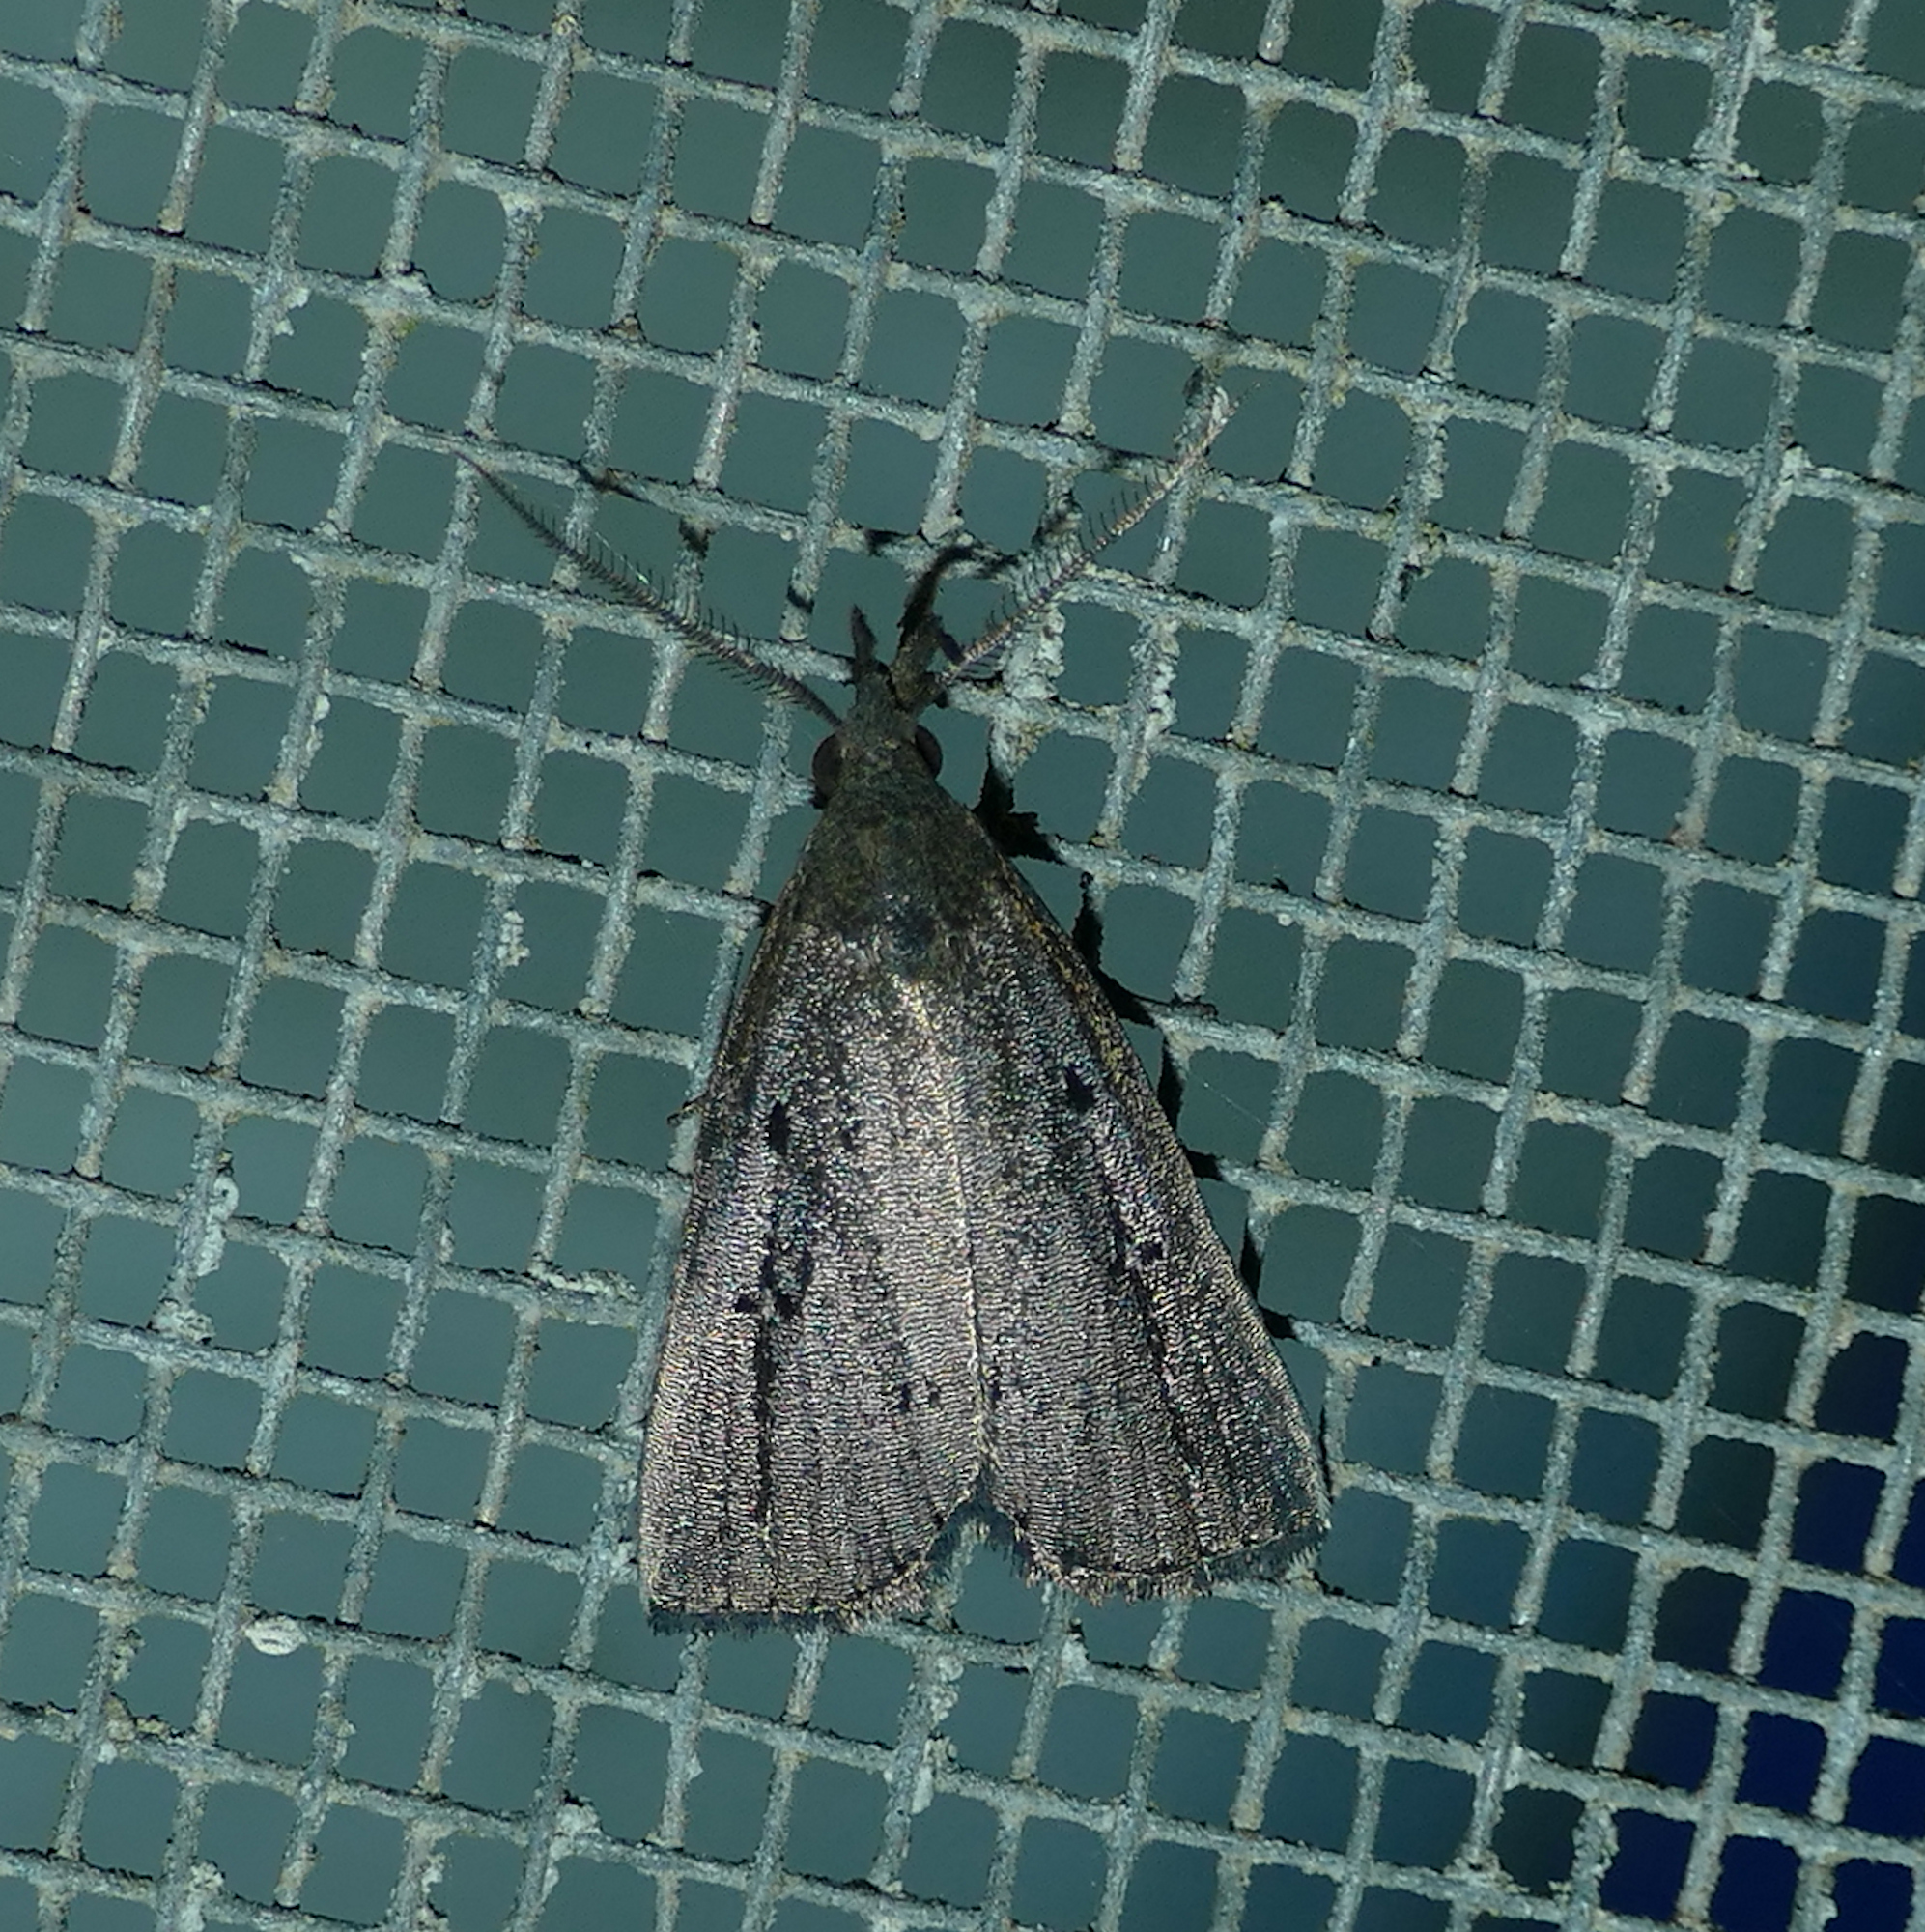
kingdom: Animalia
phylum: Arthropoda
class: Insecta
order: Lepidoptera
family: Erebidae
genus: Macrochilo
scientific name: Macrochilo orciferalis
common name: Bronzy owlet
